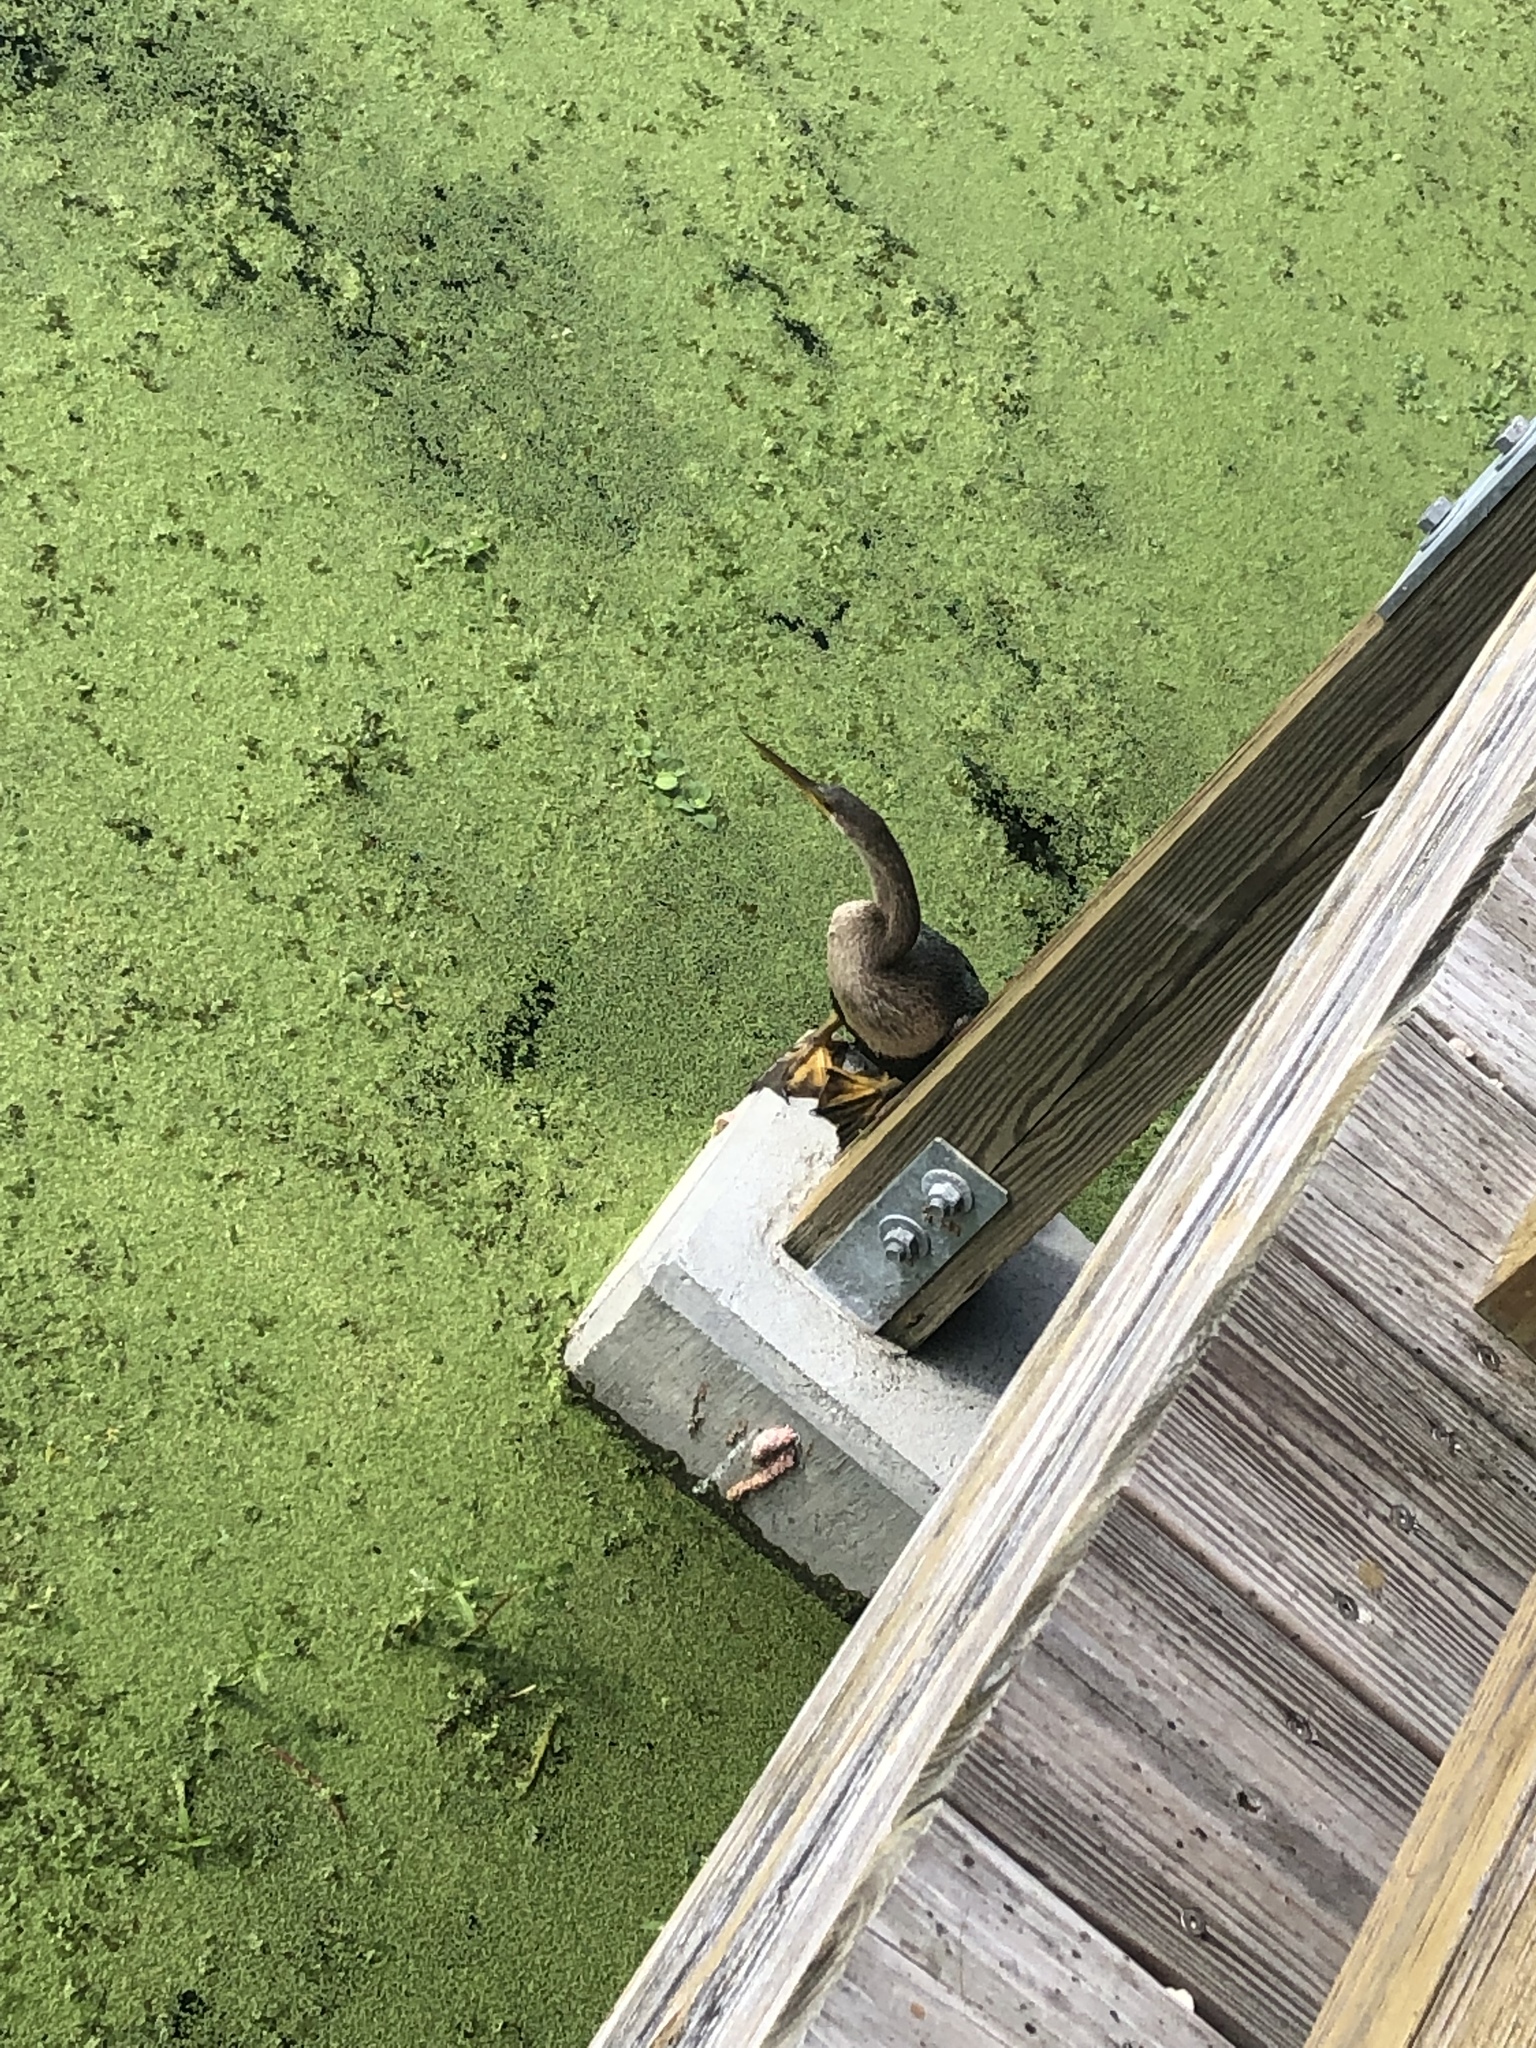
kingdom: Animalia
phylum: Chordata
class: Aves
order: Suliformes
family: Anhingidae
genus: Anhinga
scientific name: Anhinga anhinga
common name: Anhinga
